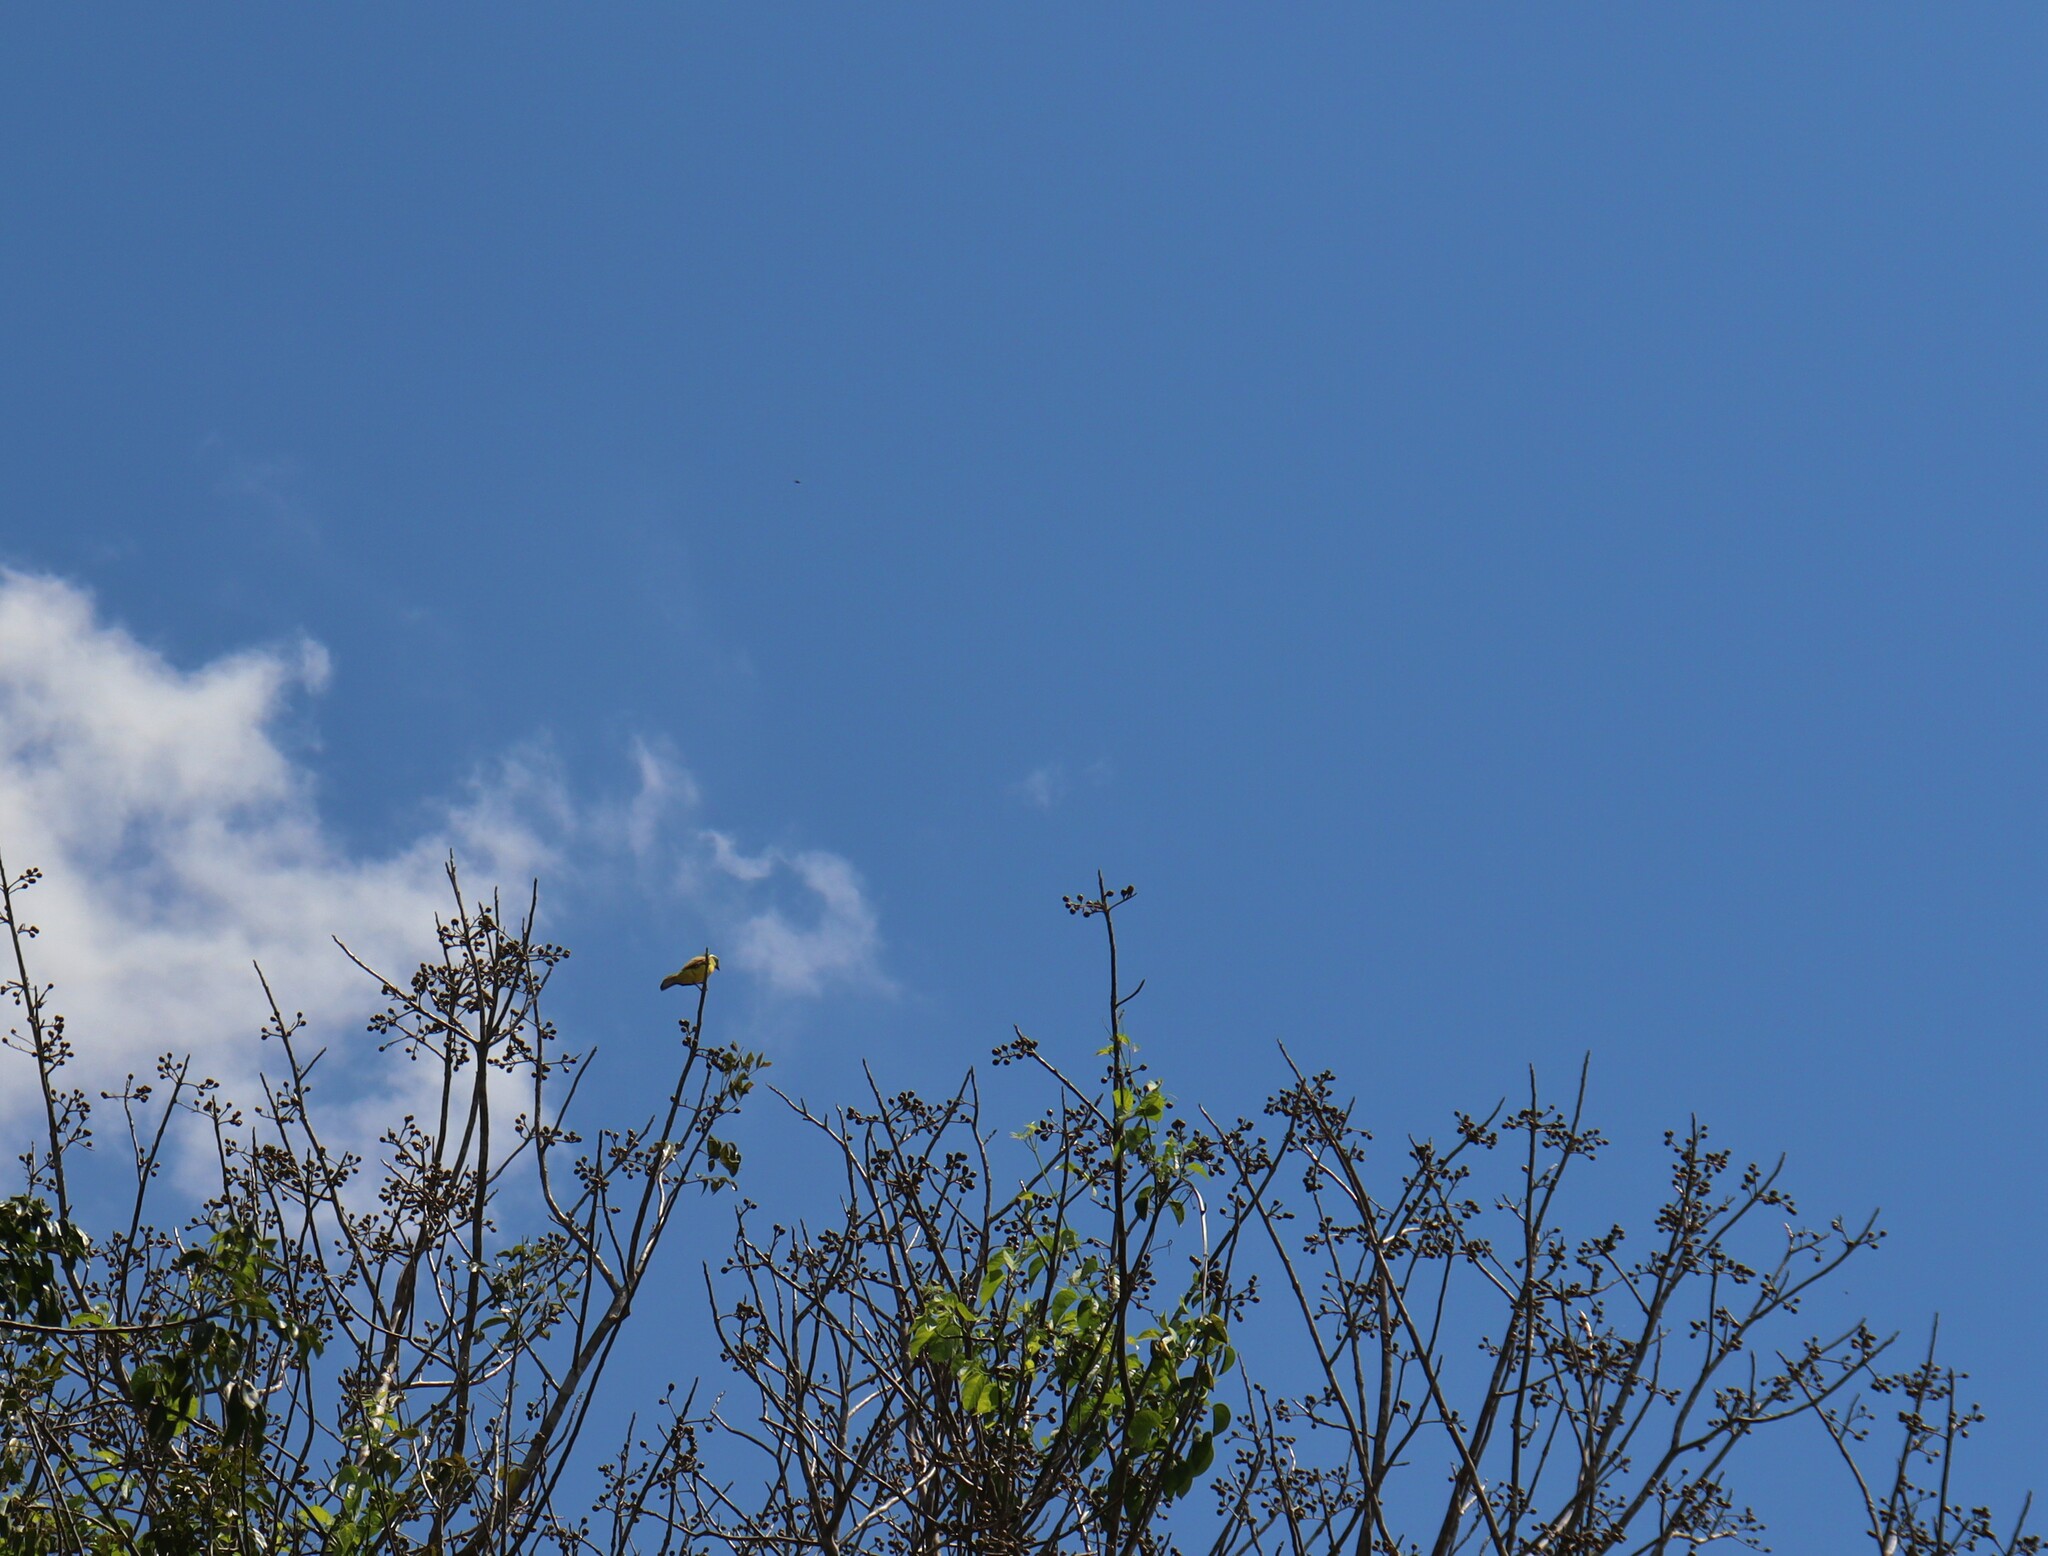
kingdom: Animalia
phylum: Chordata
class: Aves
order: Passeriformes
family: Tyrannidae
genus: Myiozetetes
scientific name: Myiozetetes similis
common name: Social flycatcher
